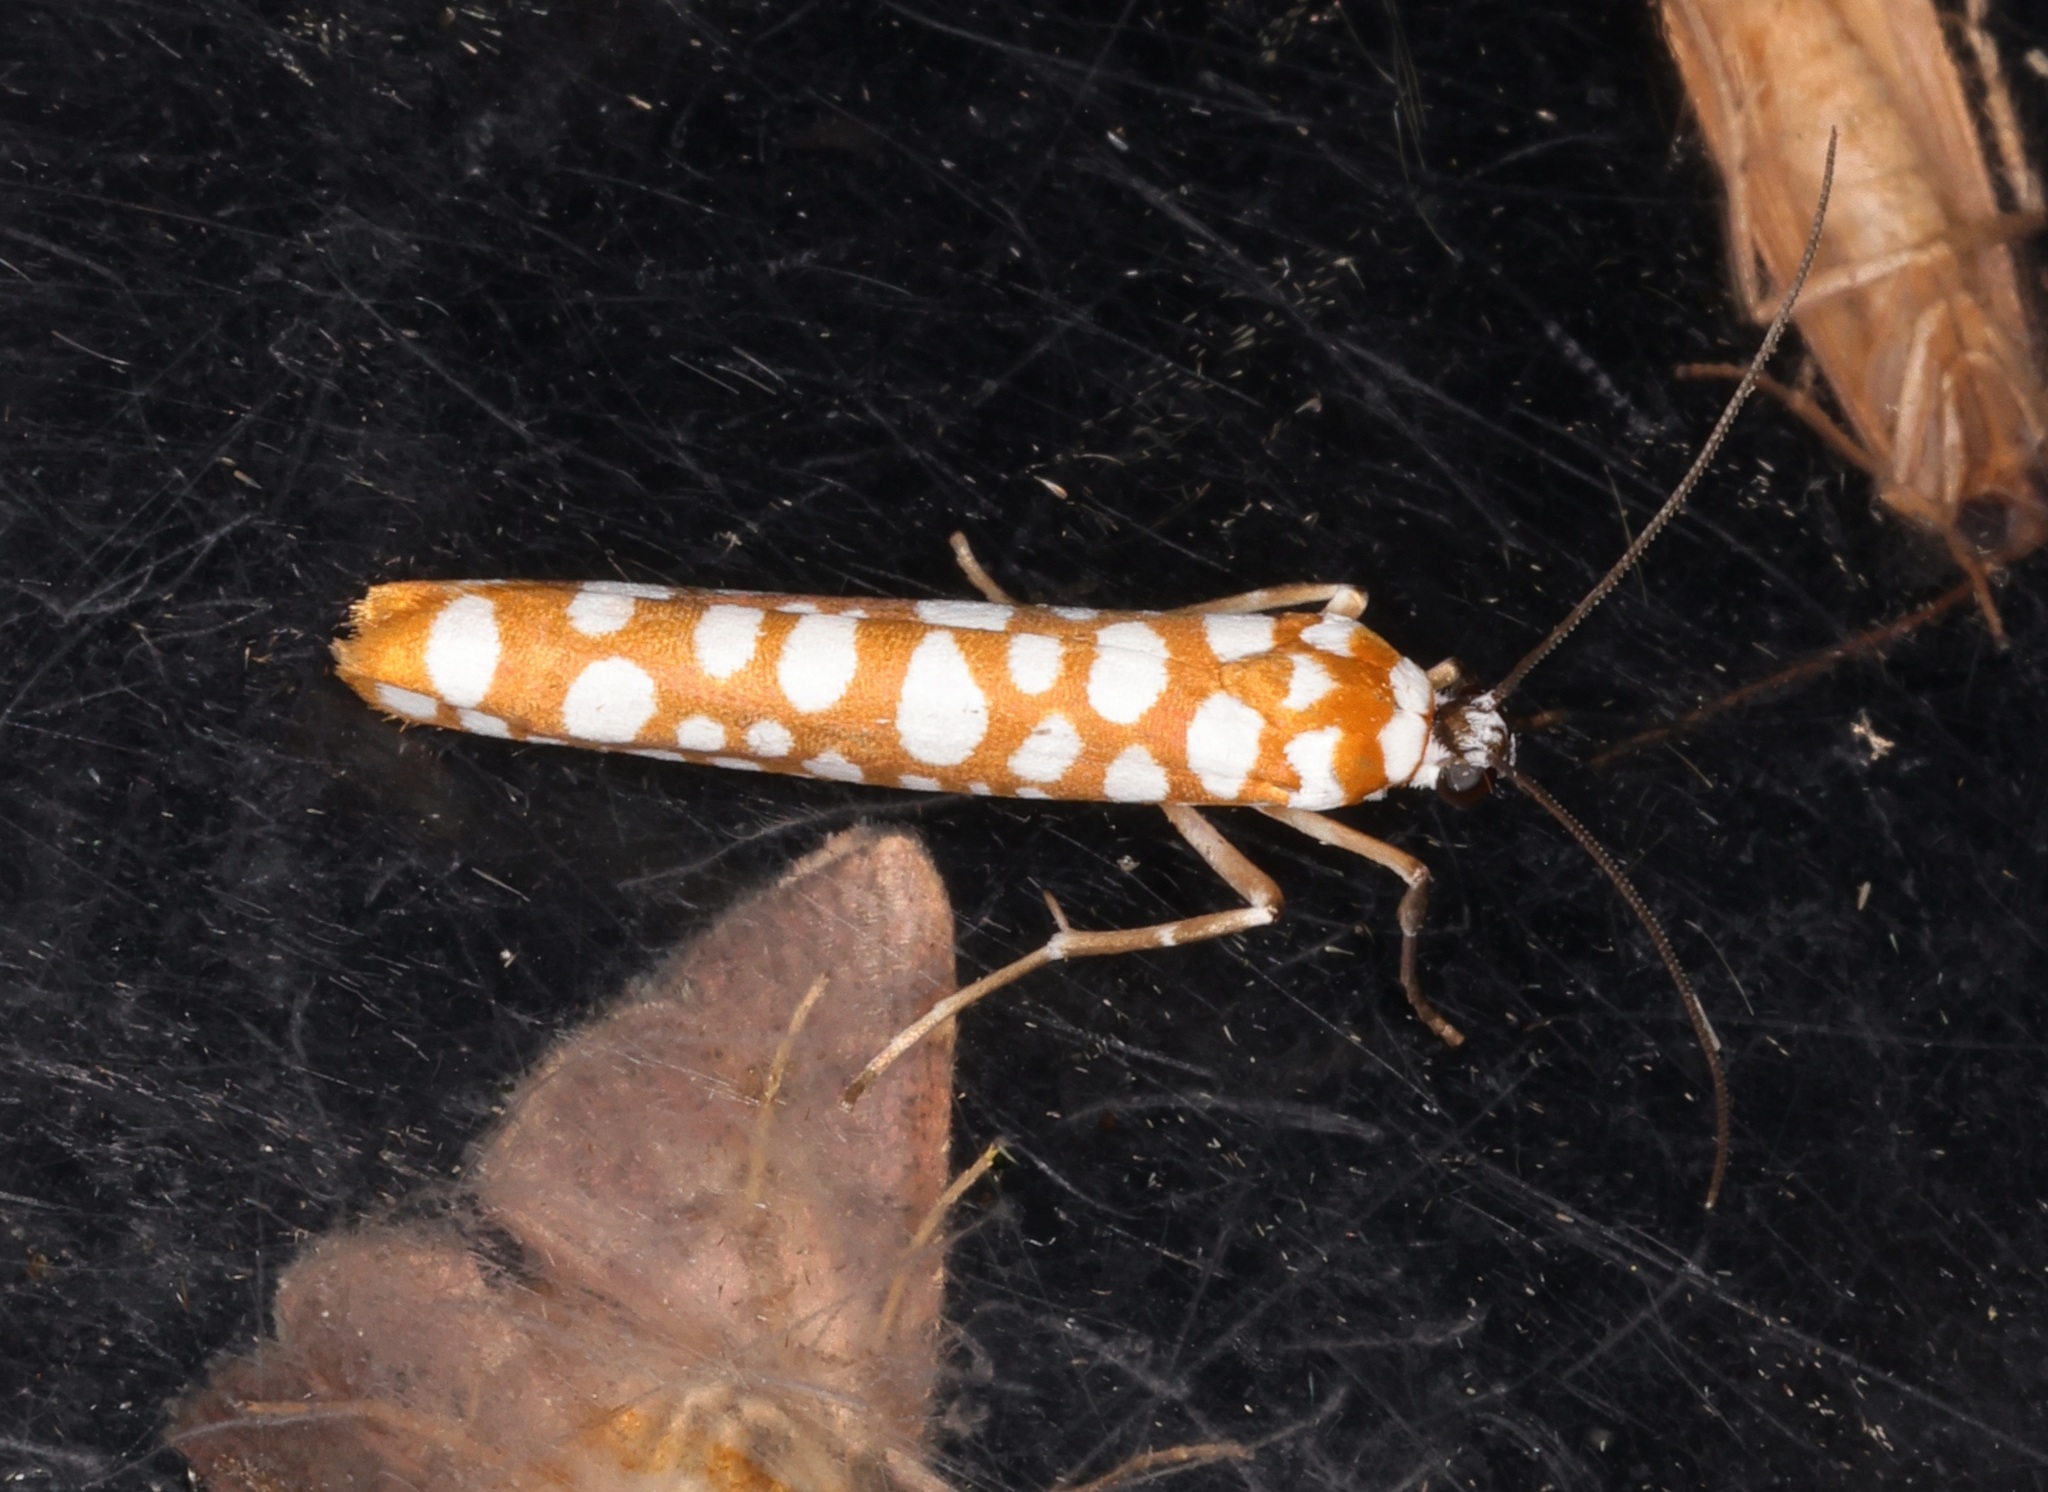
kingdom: Animalia
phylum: Arthropoda
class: Insecta
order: Lepidoptera
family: Attevidae
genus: Atteva
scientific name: Atteva wallengreni
